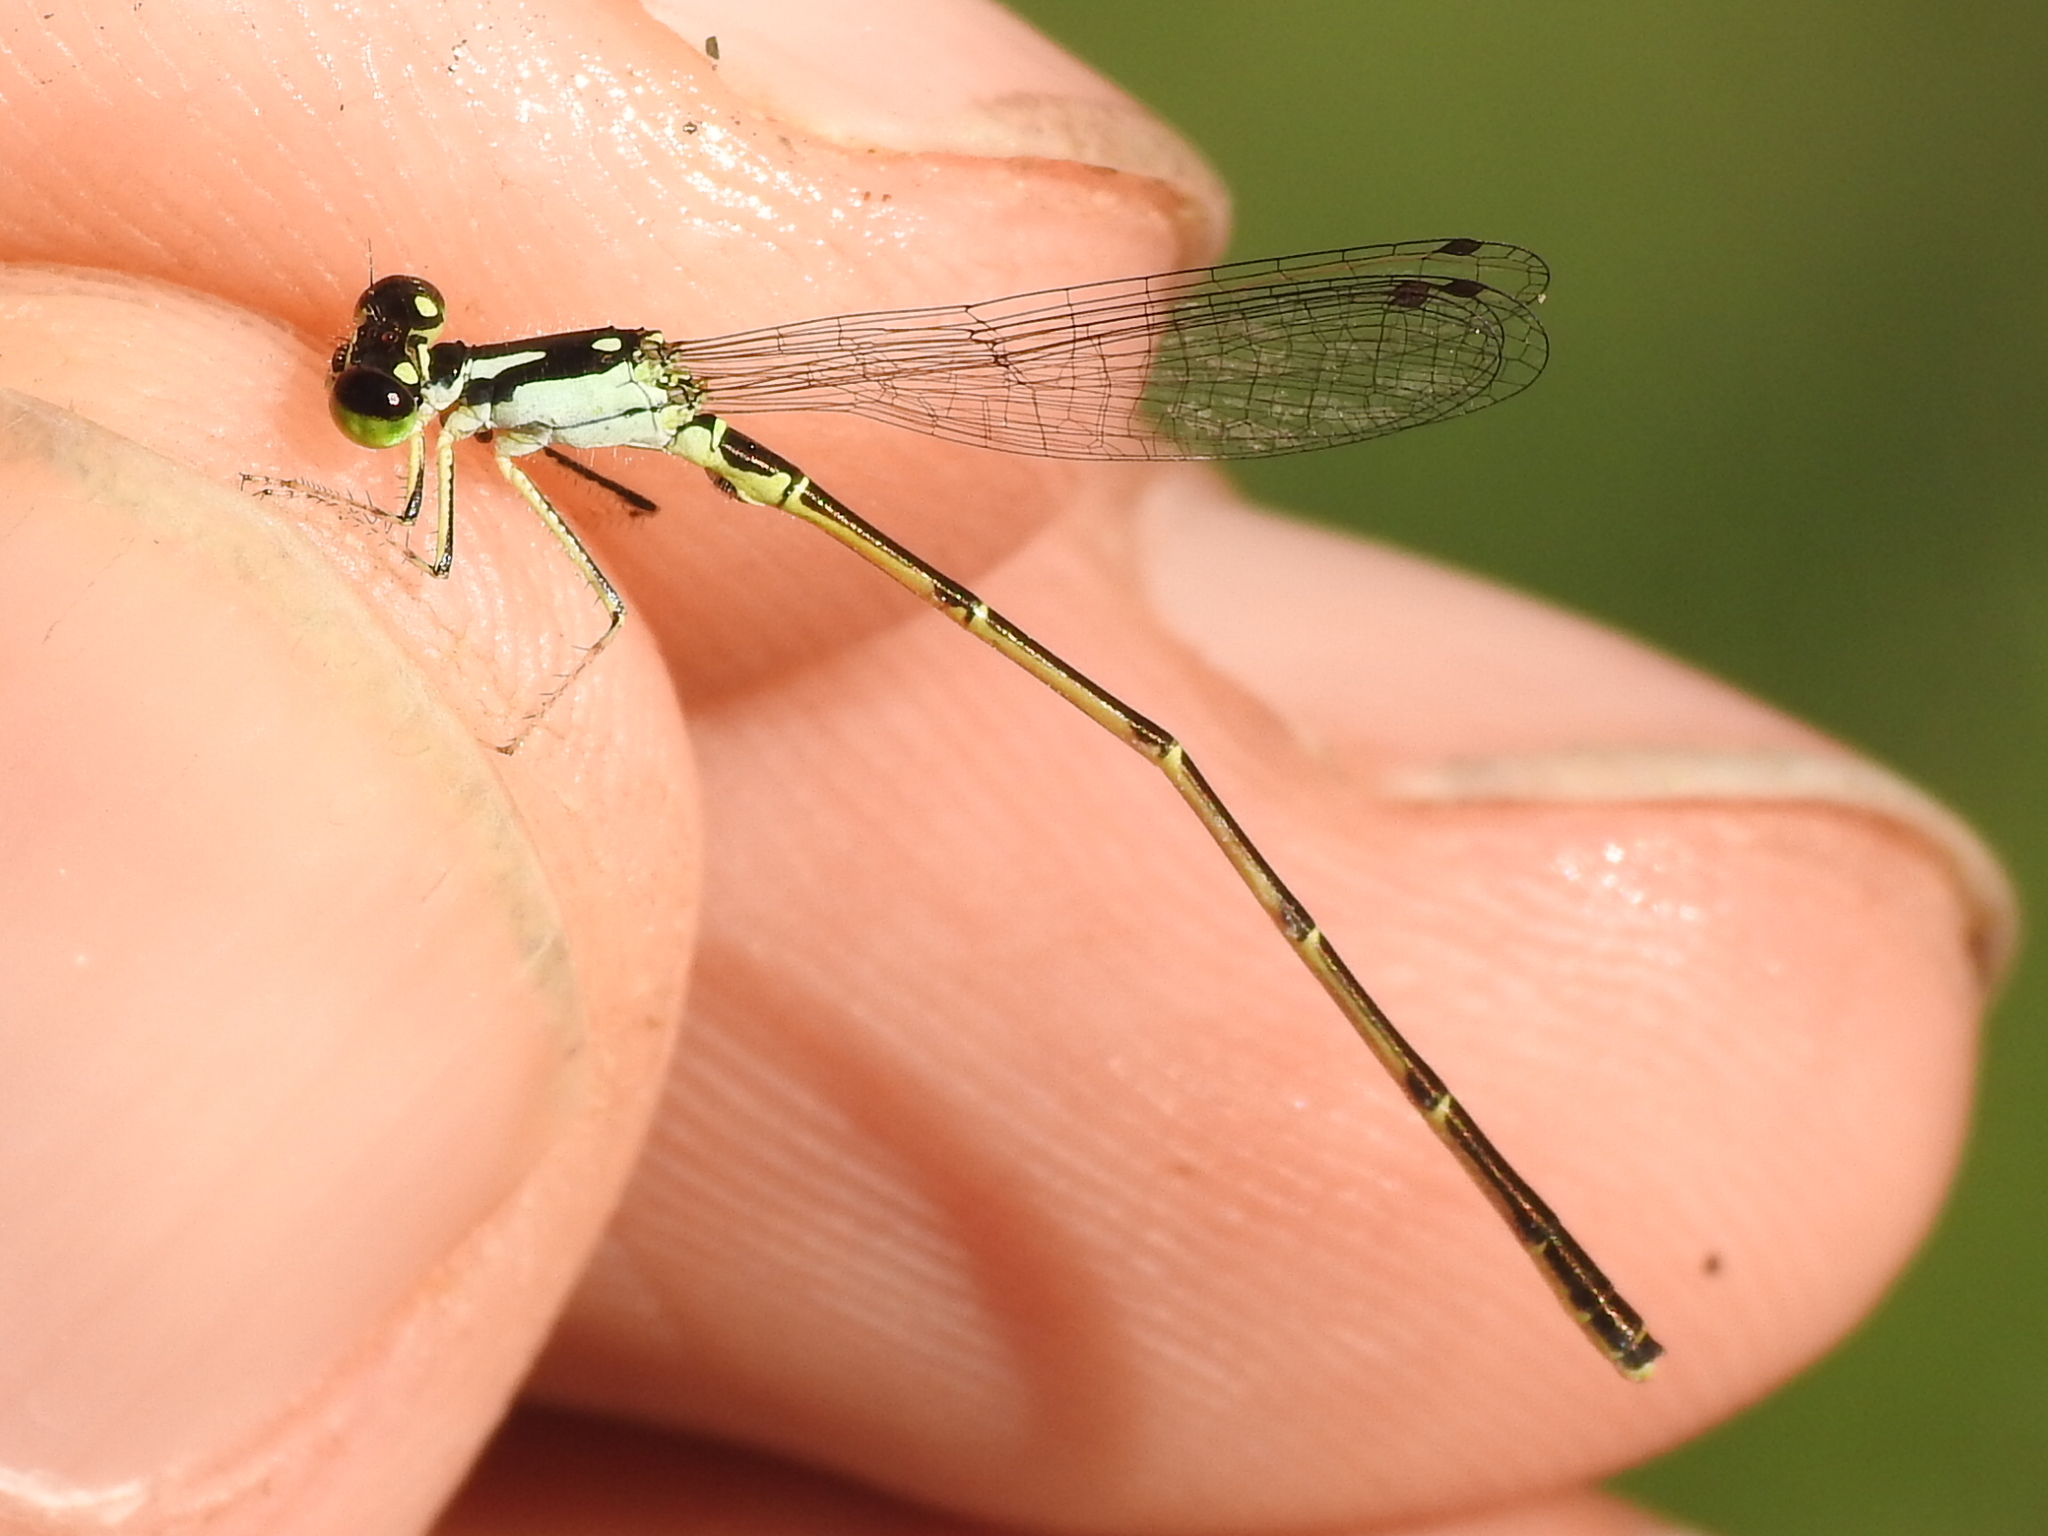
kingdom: Animalia
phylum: Arthropoda
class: Insecta
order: Odonata
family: Coenagrionidae
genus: Ischnura
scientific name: Ischnura posita
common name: Fragile forktail
